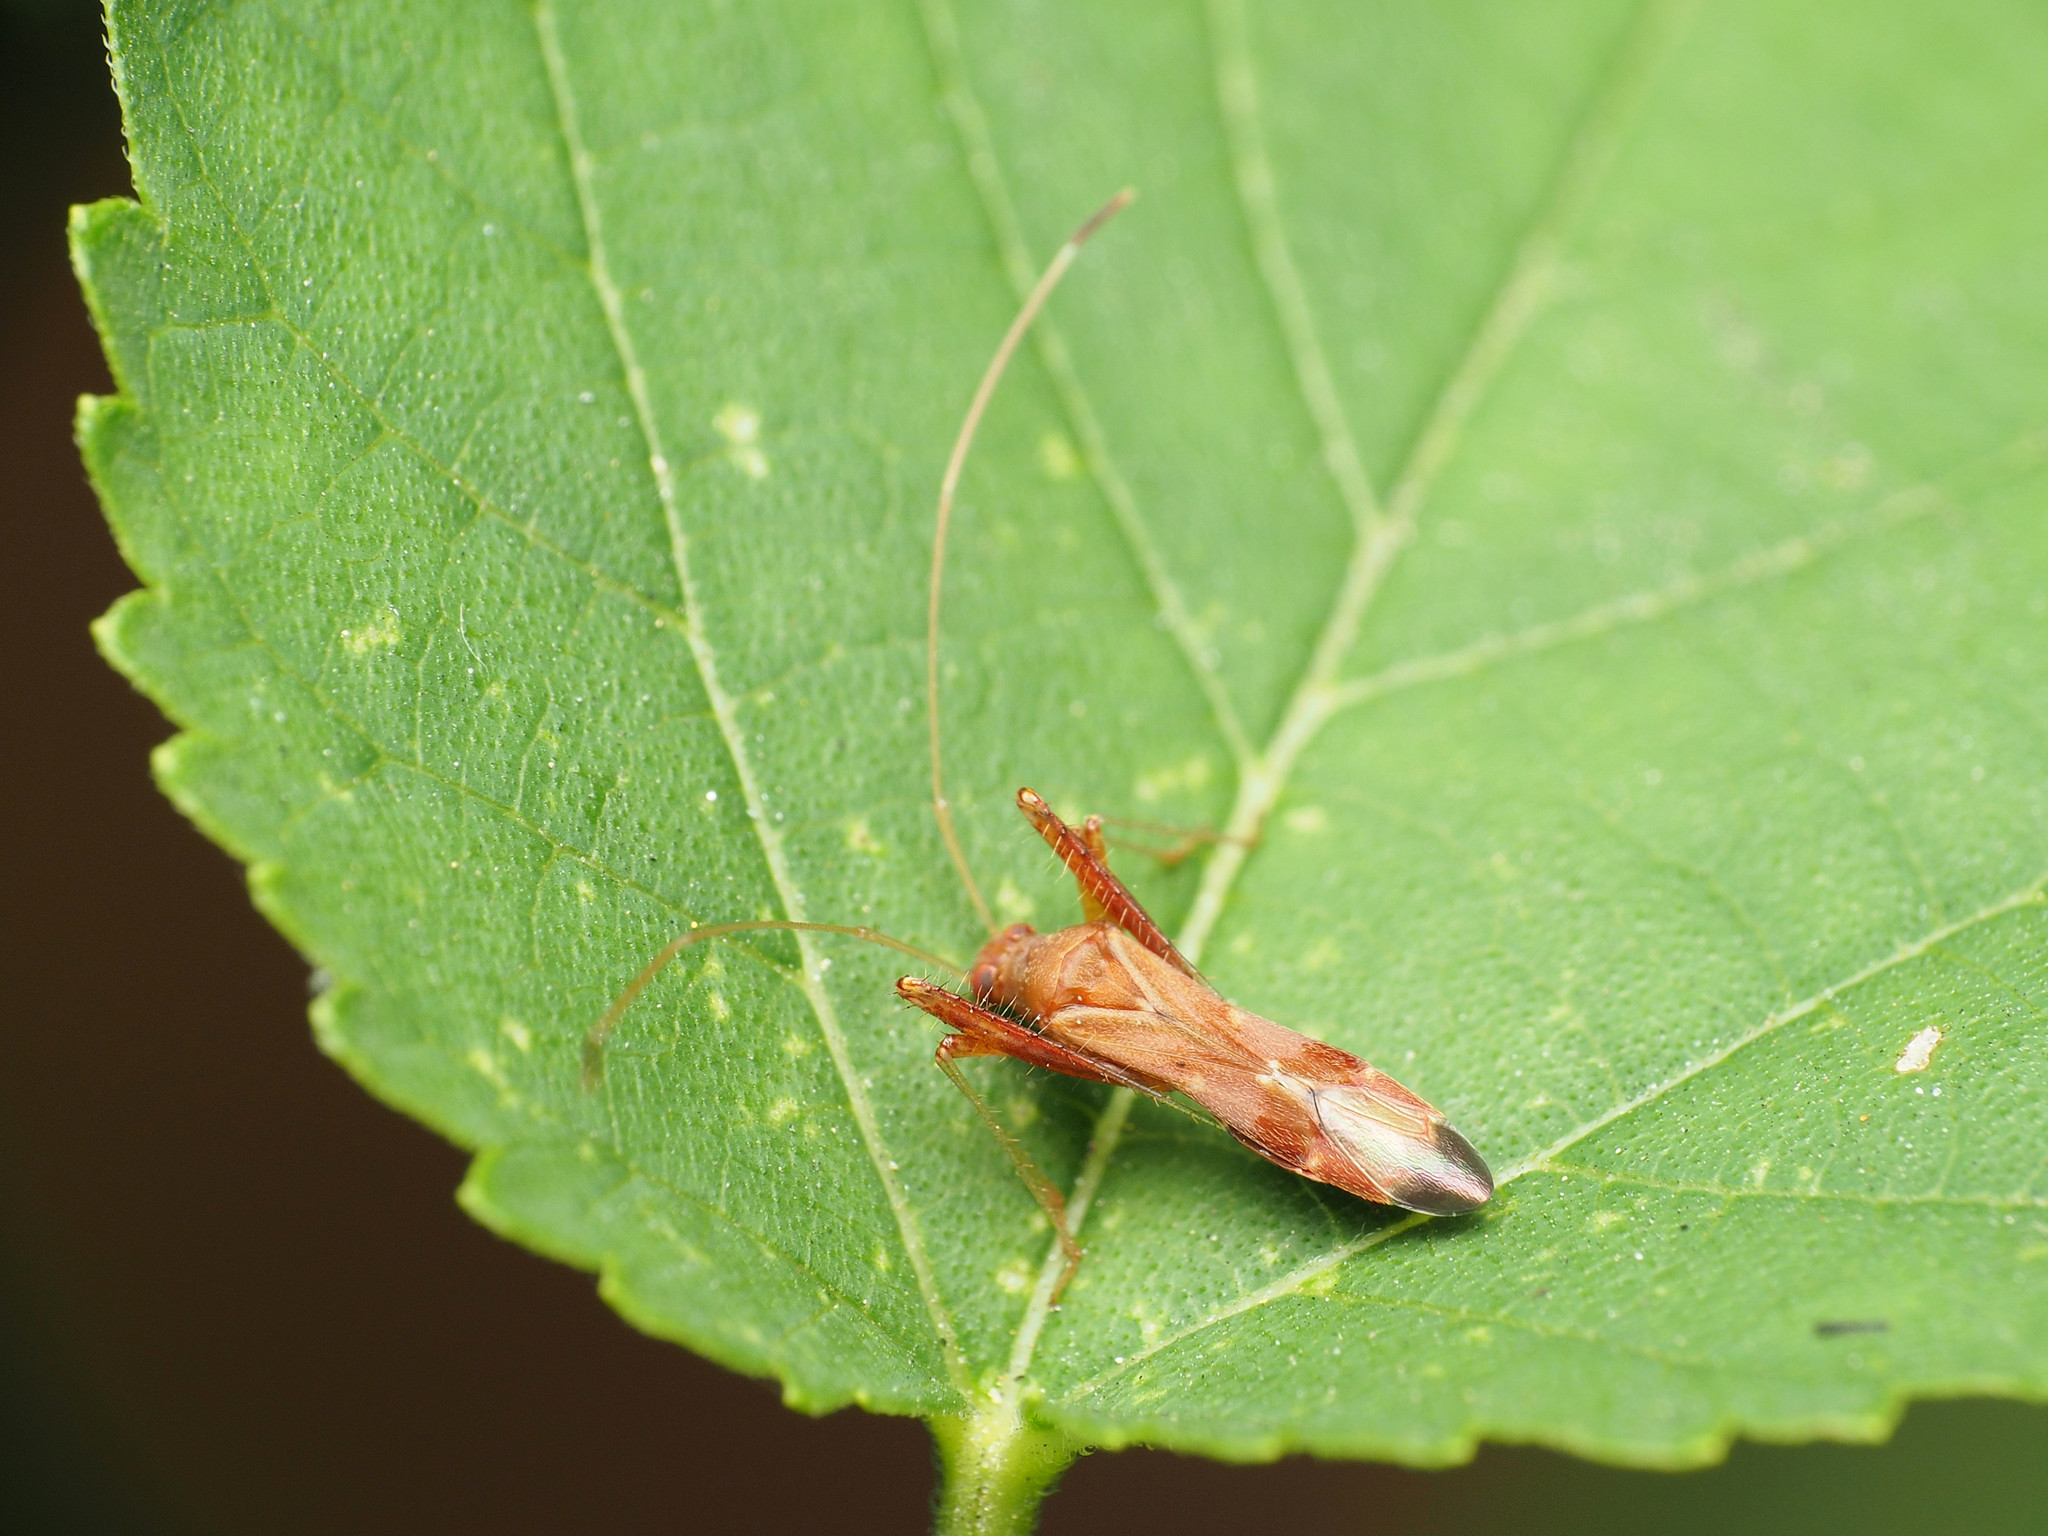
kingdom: Animalia
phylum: Arthropoda
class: Insecta
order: Hemiptera
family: Miridae
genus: Paraxenetus
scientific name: Paraxenetus guttulatus
